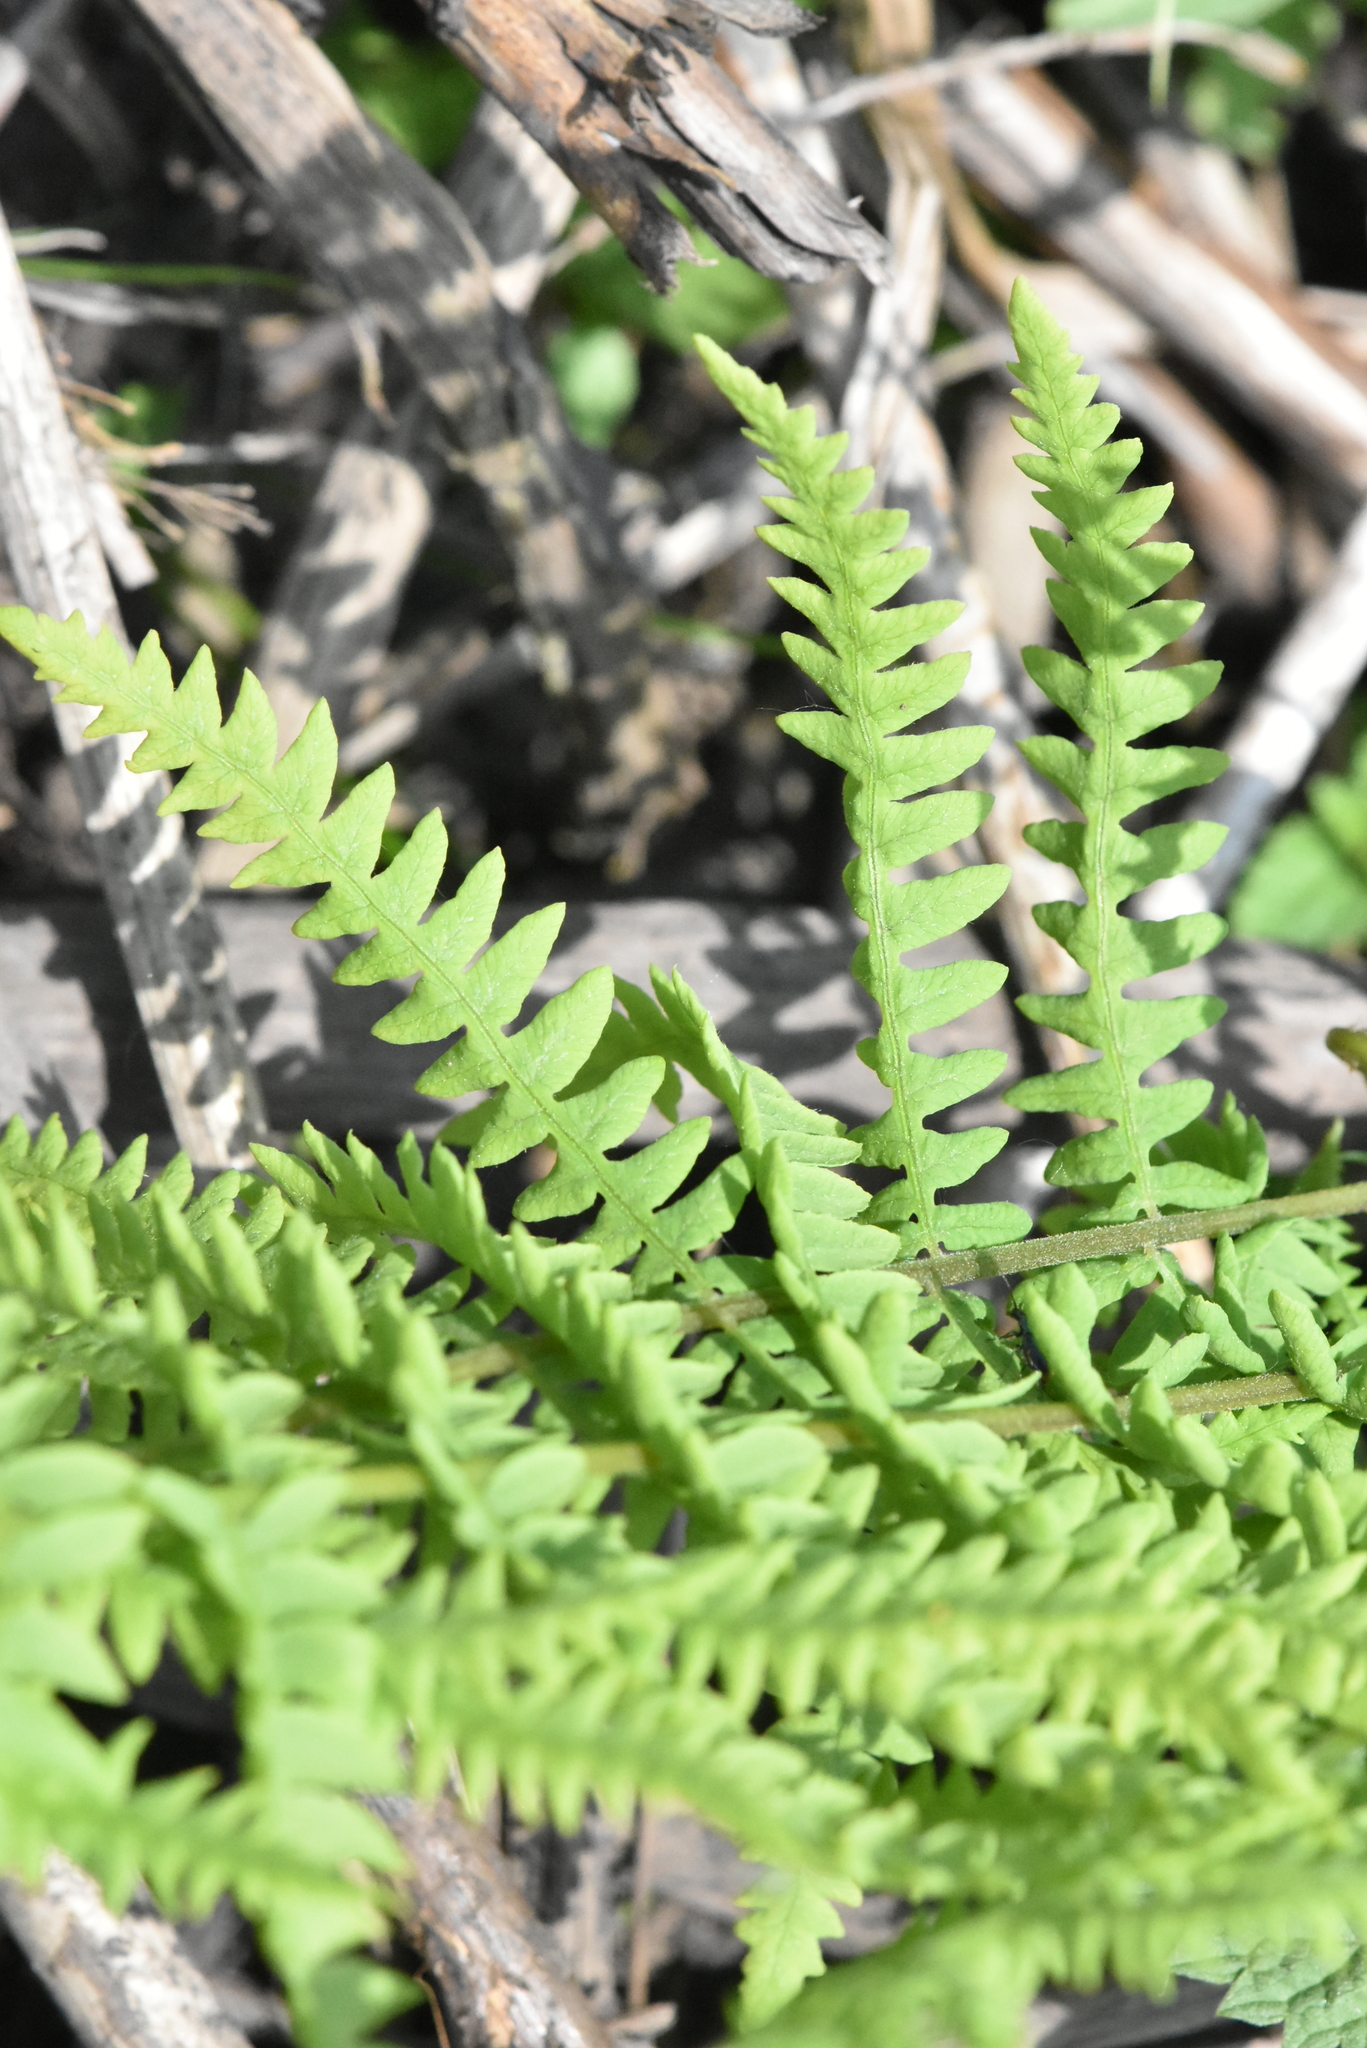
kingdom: Plantae
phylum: Tracheophyta
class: Polypodiopsida
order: Polypodiales
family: Thelypteridaceae
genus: Thelypteris
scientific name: Thelypteris palustris
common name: Marsh fern
